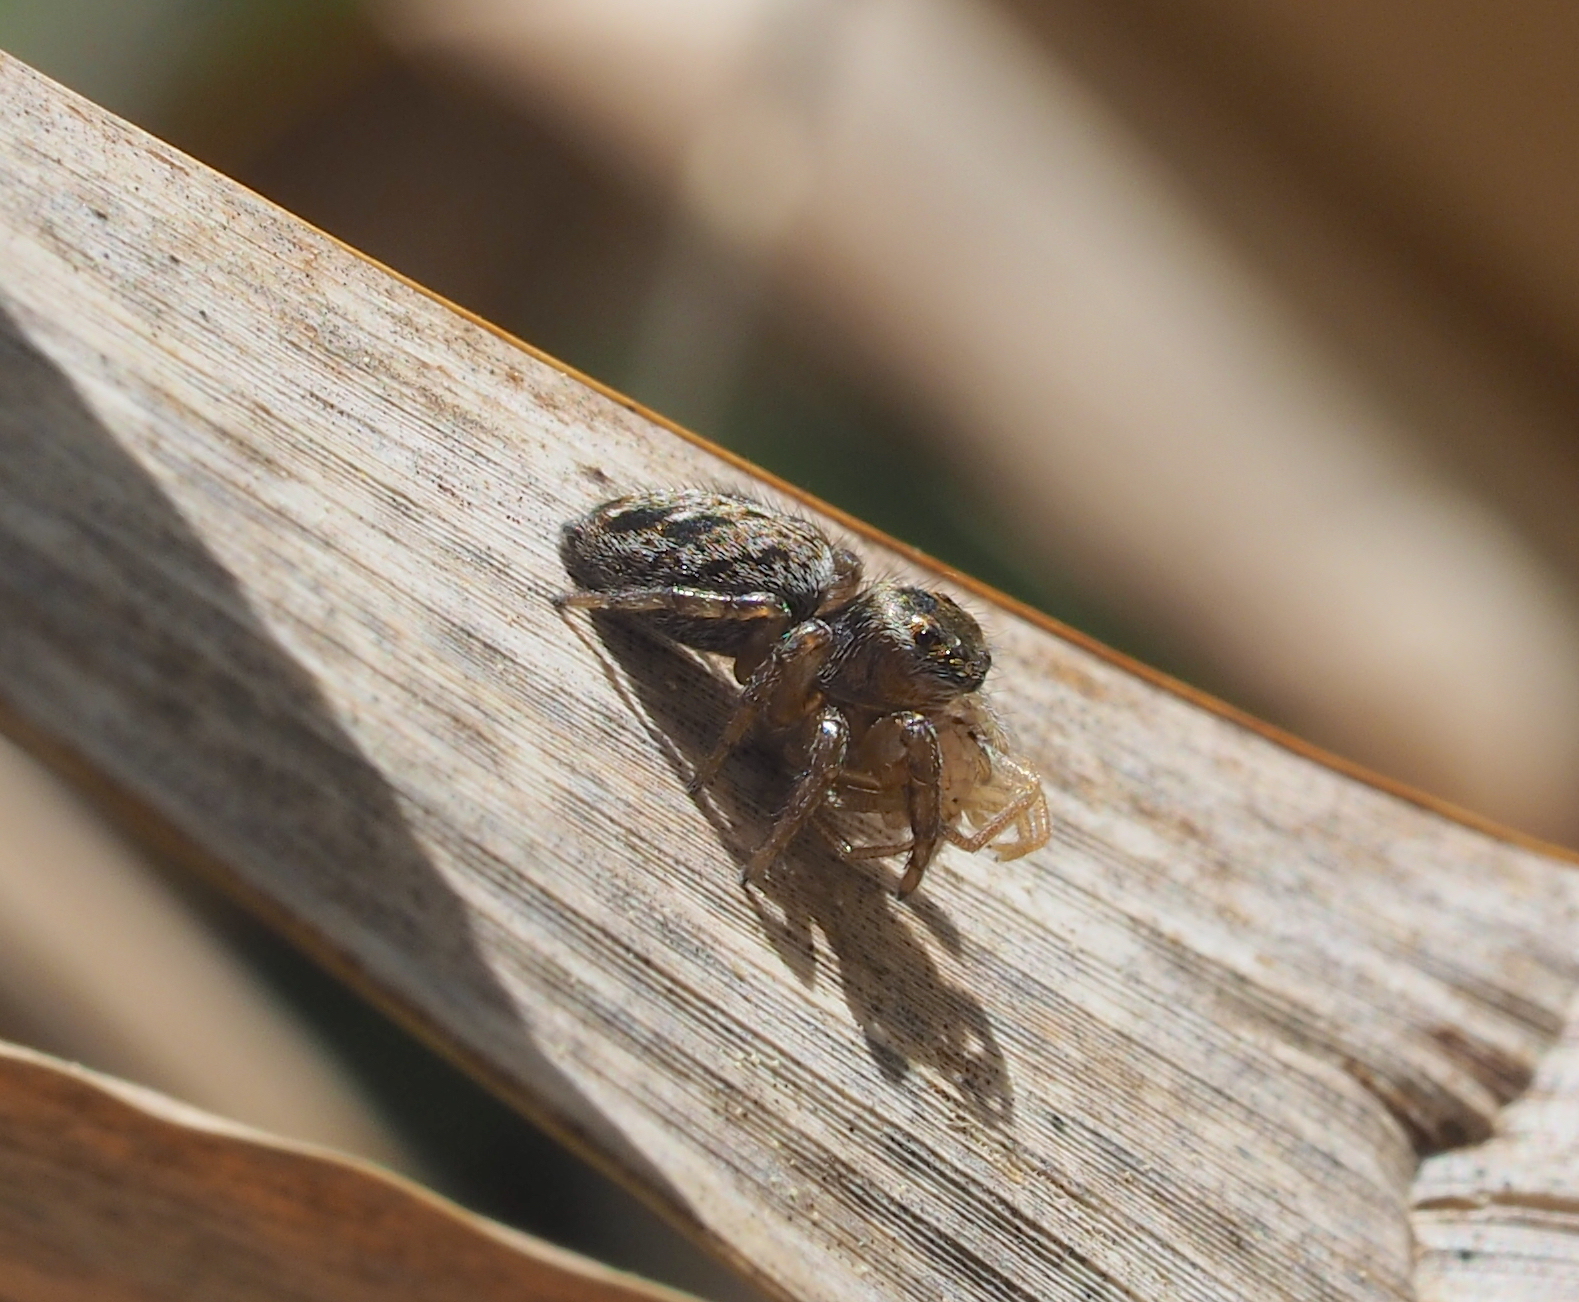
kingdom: Animalia
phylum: Arthropoda
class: Arachnida
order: Araneae
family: Salticidae
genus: Evarcha
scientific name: Evarcha arcuata
